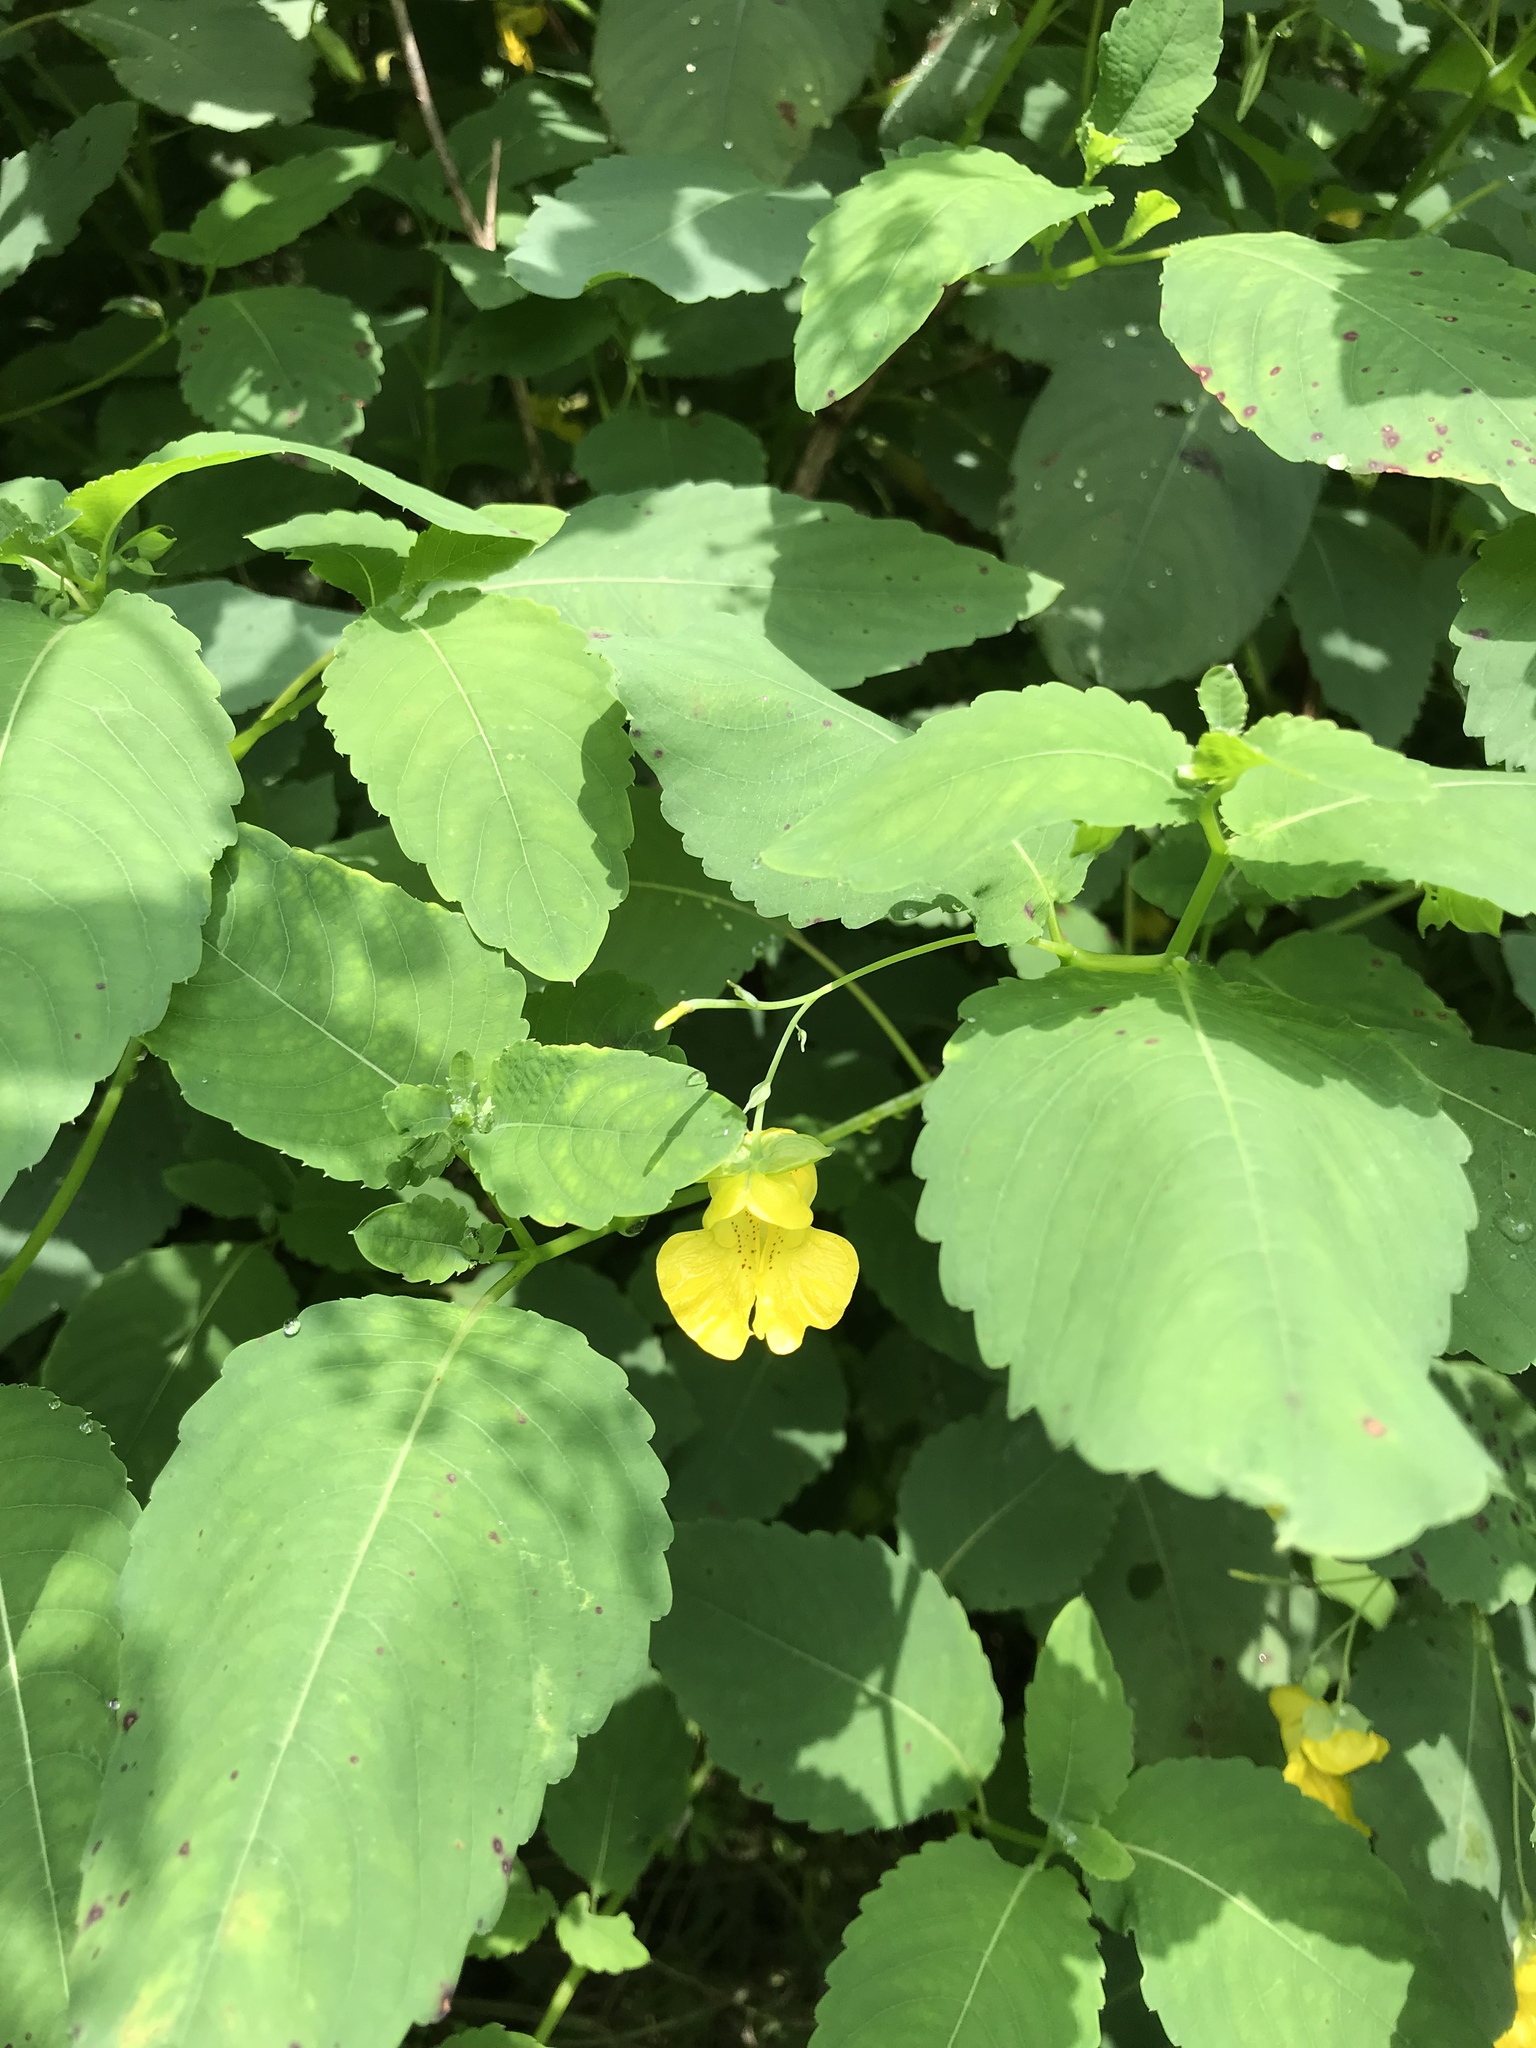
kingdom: Plantae
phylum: Tracheophyta
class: Magnoliopsida
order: Ericales
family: Balsaminaceae
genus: Impatiens
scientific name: Impatiens pallida
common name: Pale snapweed
